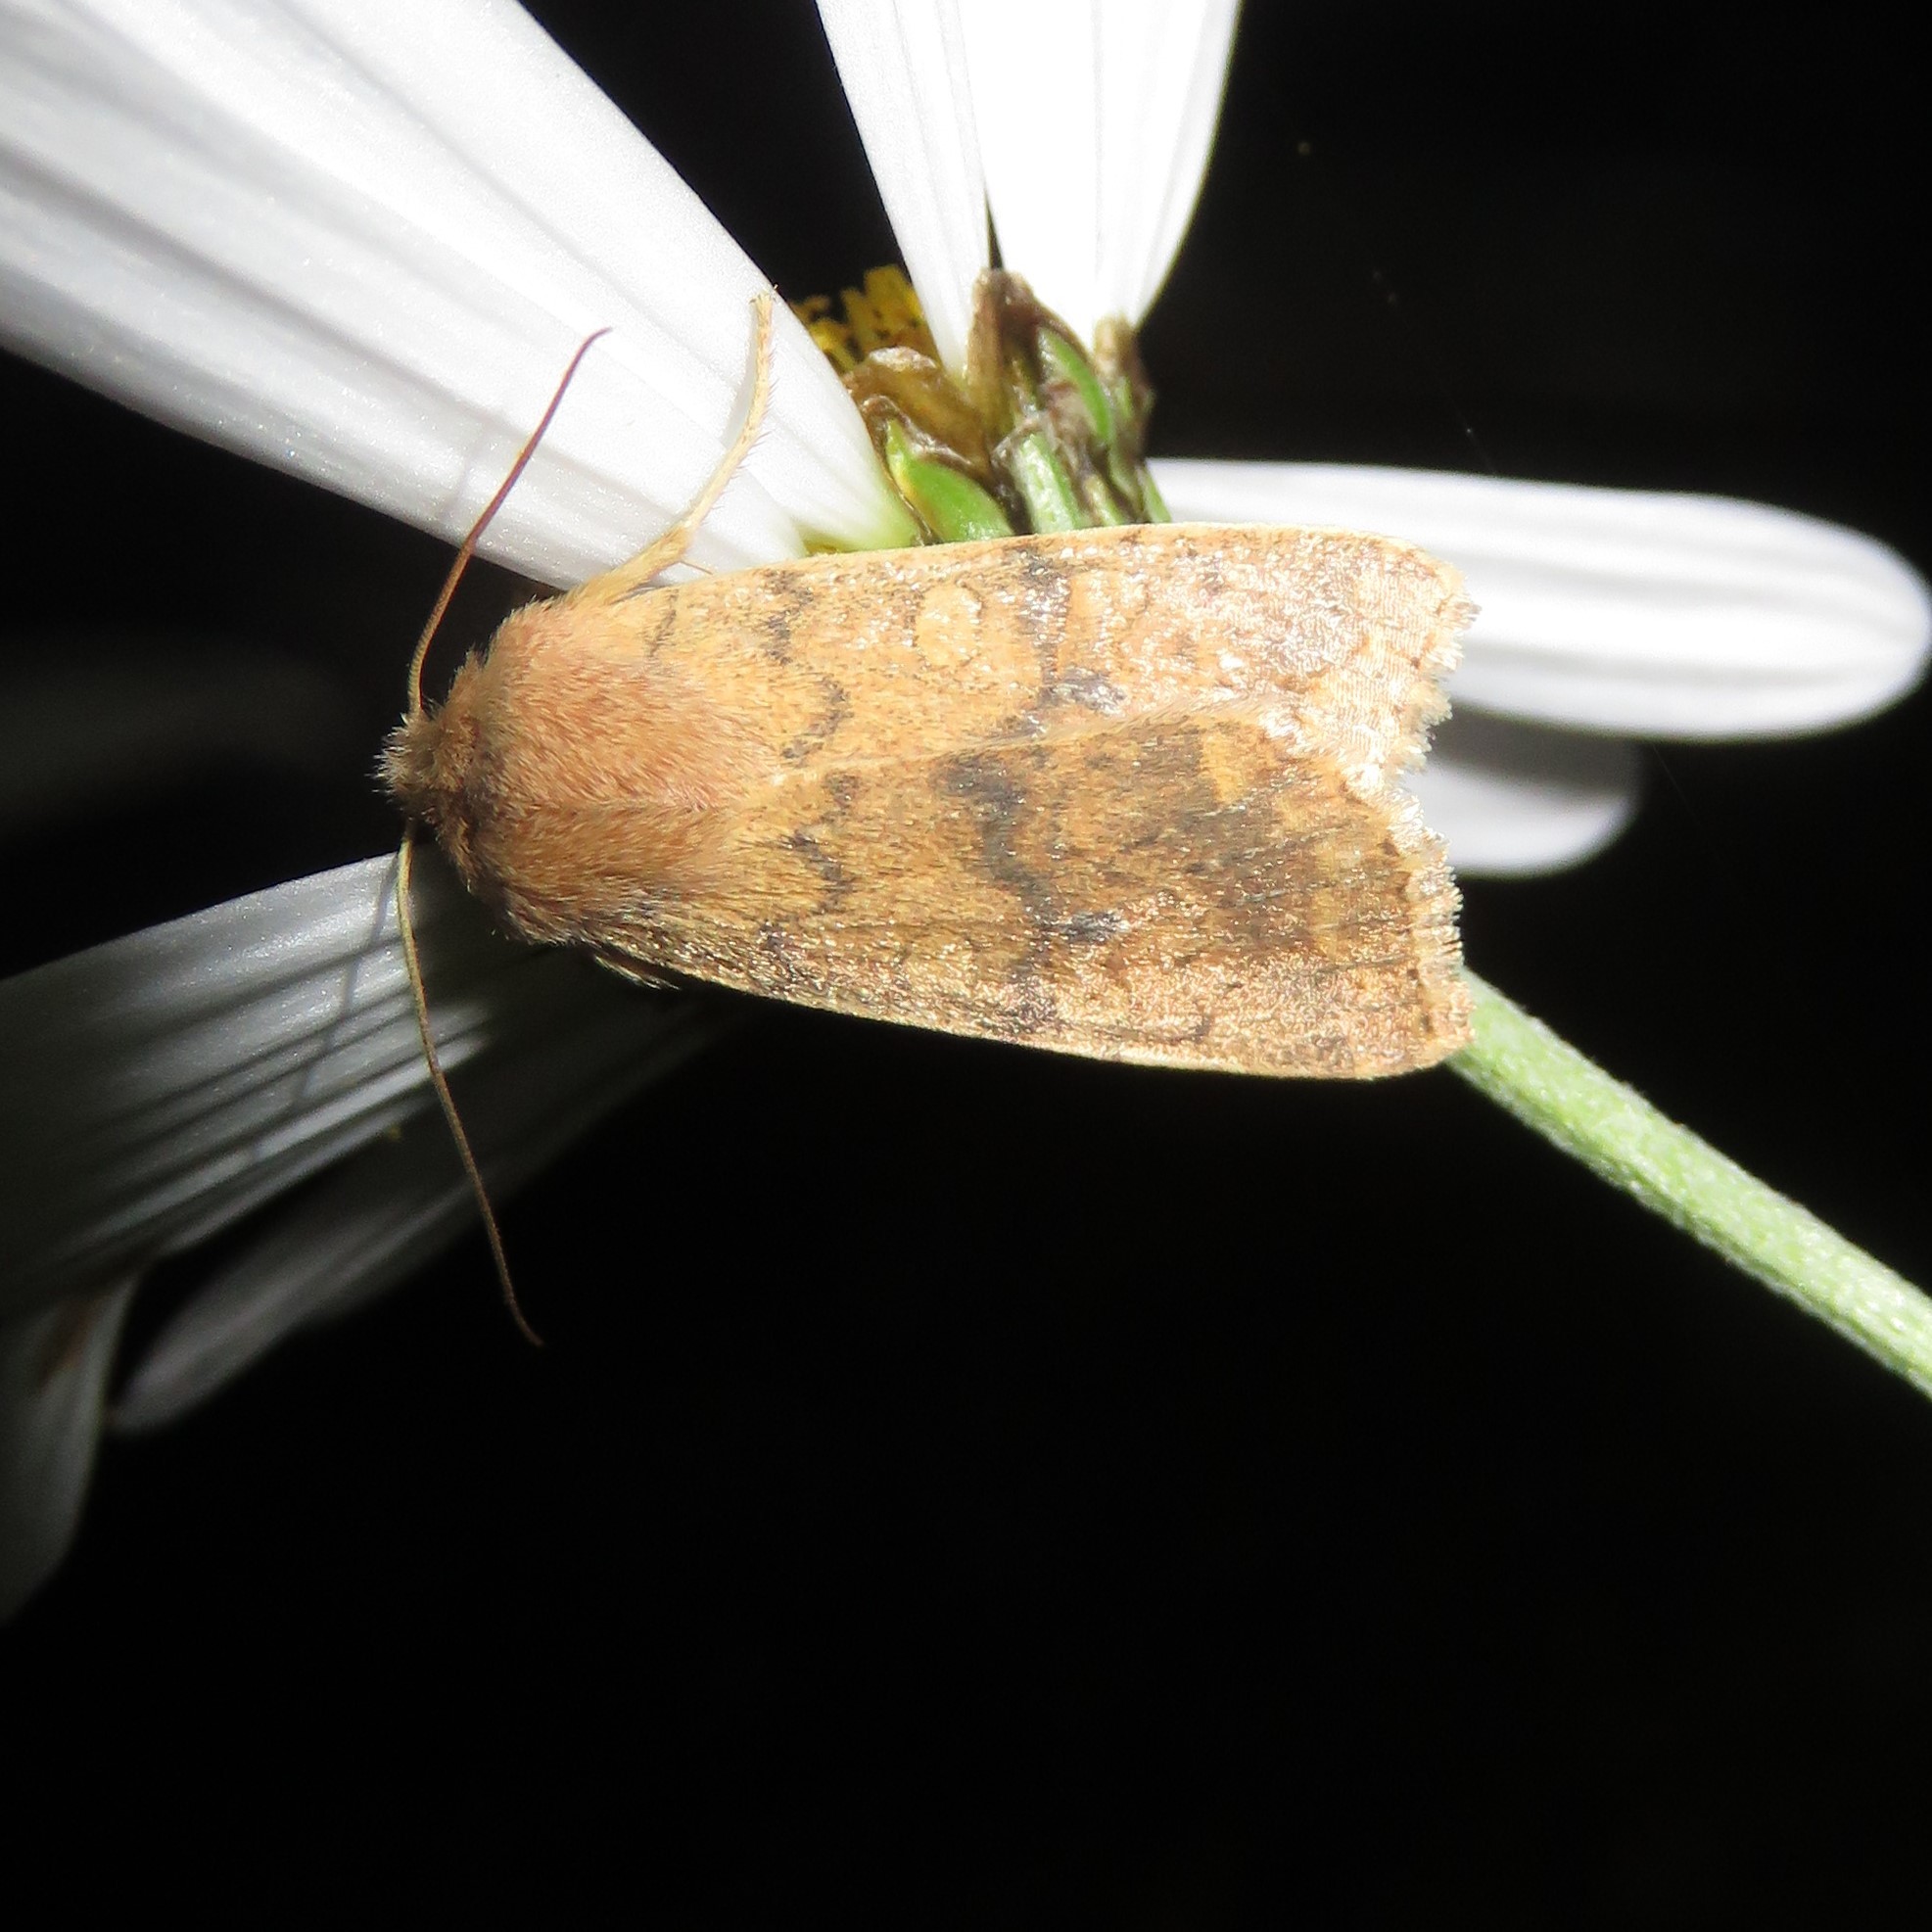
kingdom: Animalia
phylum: Arthropoda
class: Insecta
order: Lepidoptera
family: Noctuidae
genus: Agrochola
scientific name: Agrochola bicolorago
